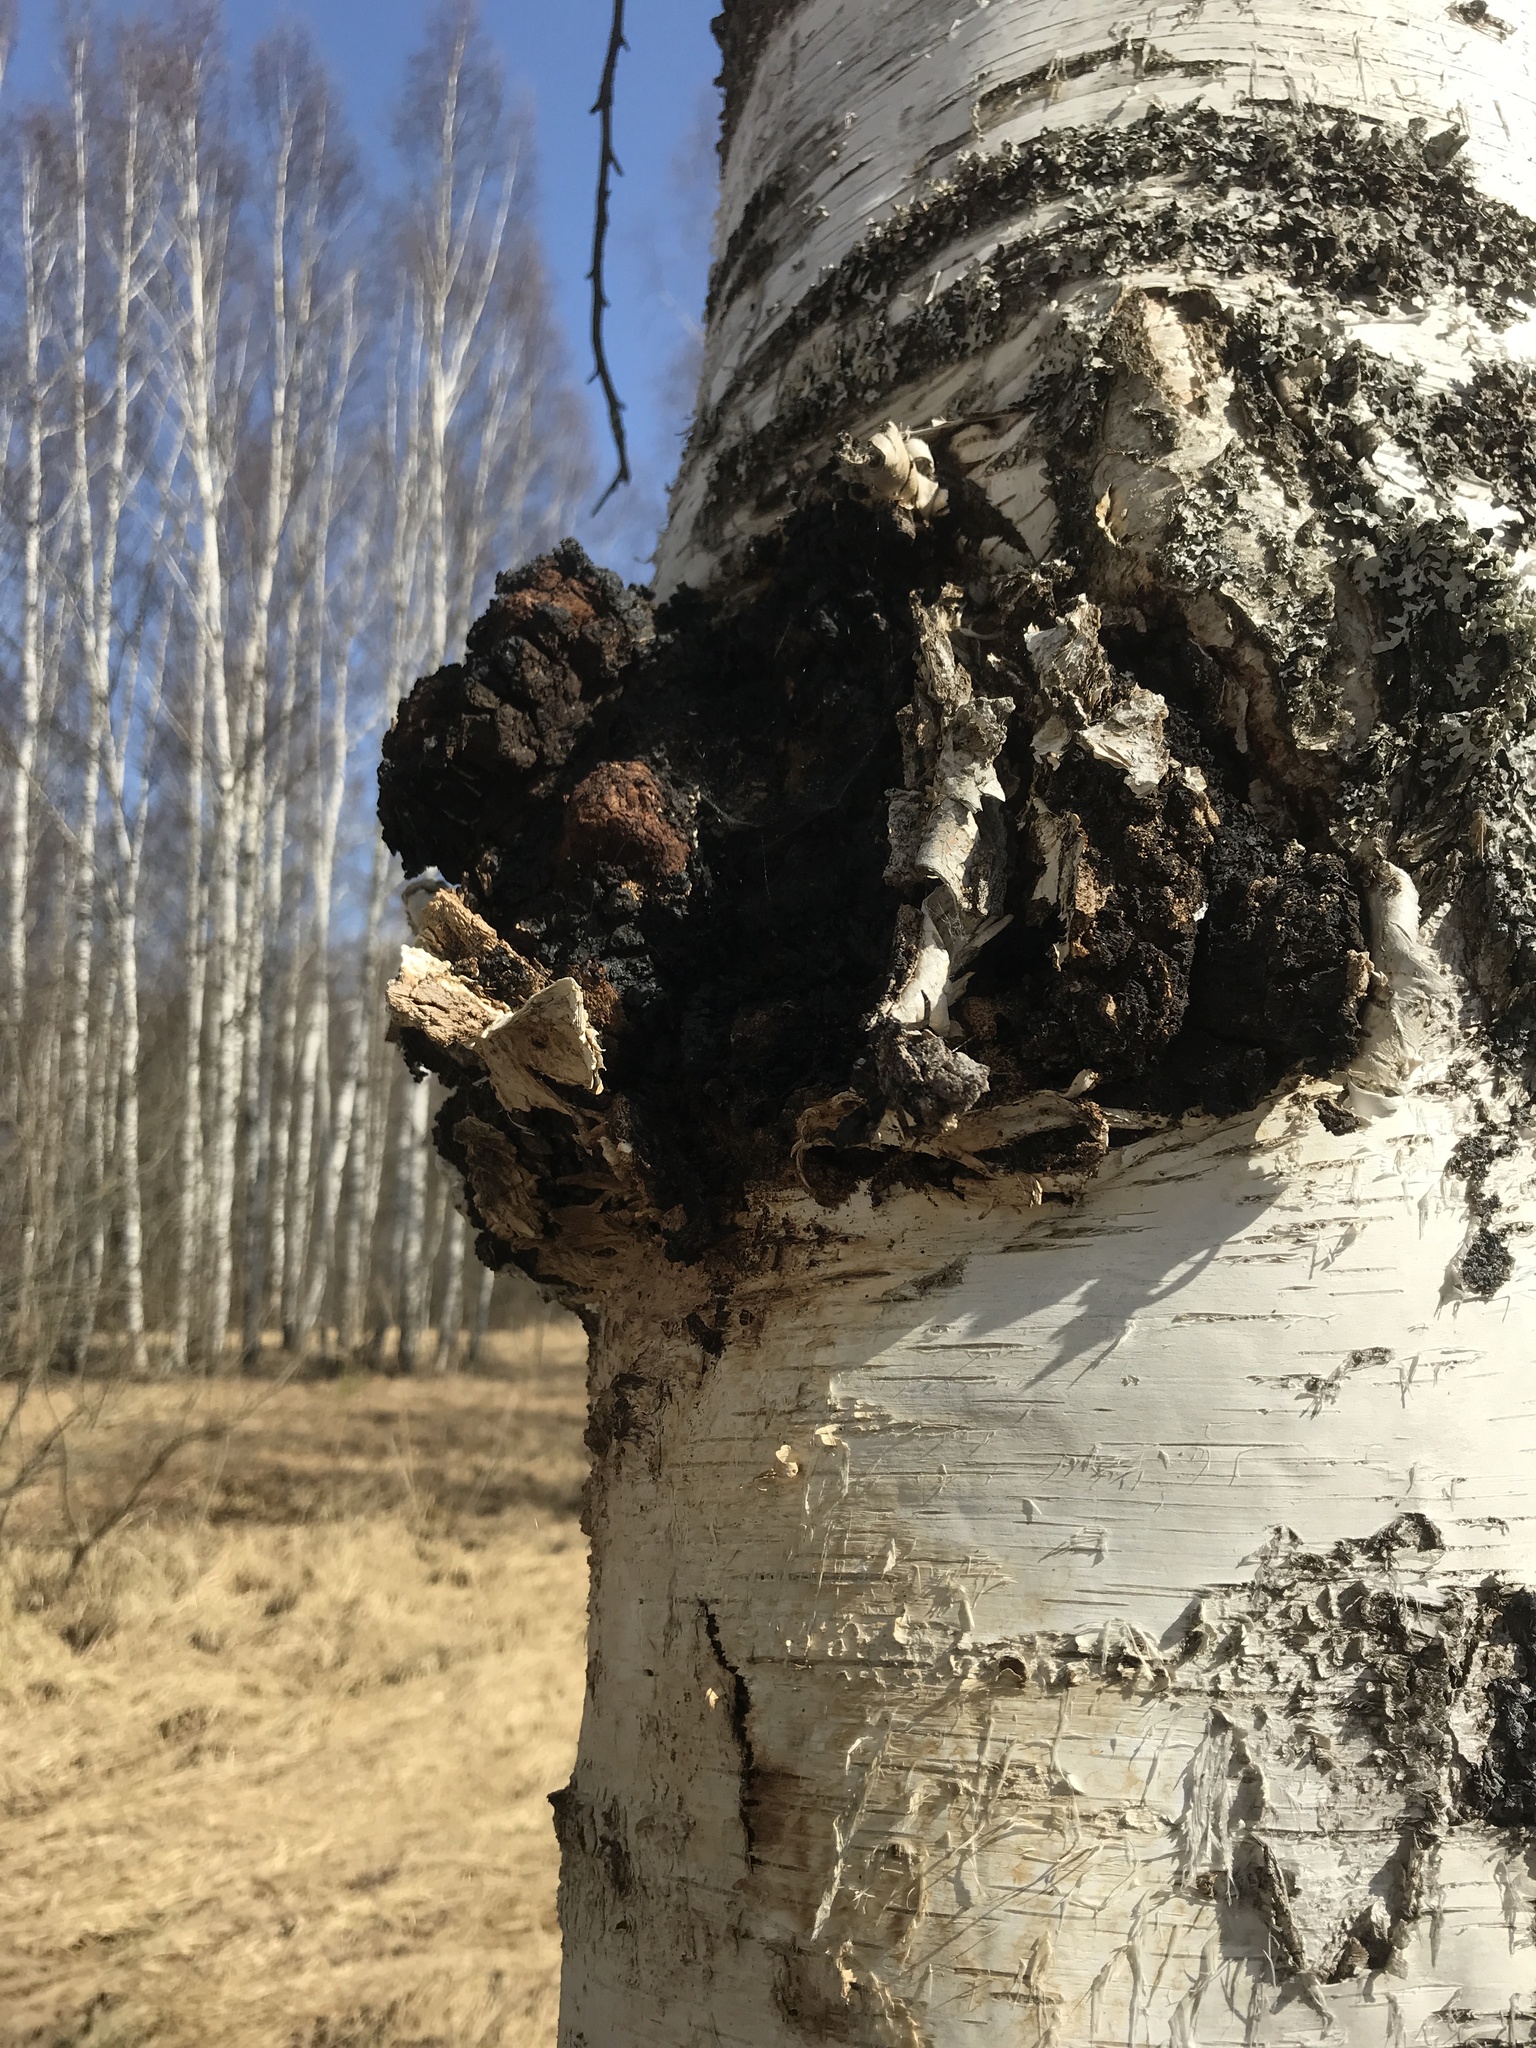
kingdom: Fungi
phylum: Basidiomycota
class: Agaricomycetes
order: Hymenochaetales
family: Hymenochaetaceae
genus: Inonotus
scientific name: Inonotus obliquus
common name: Chaga
